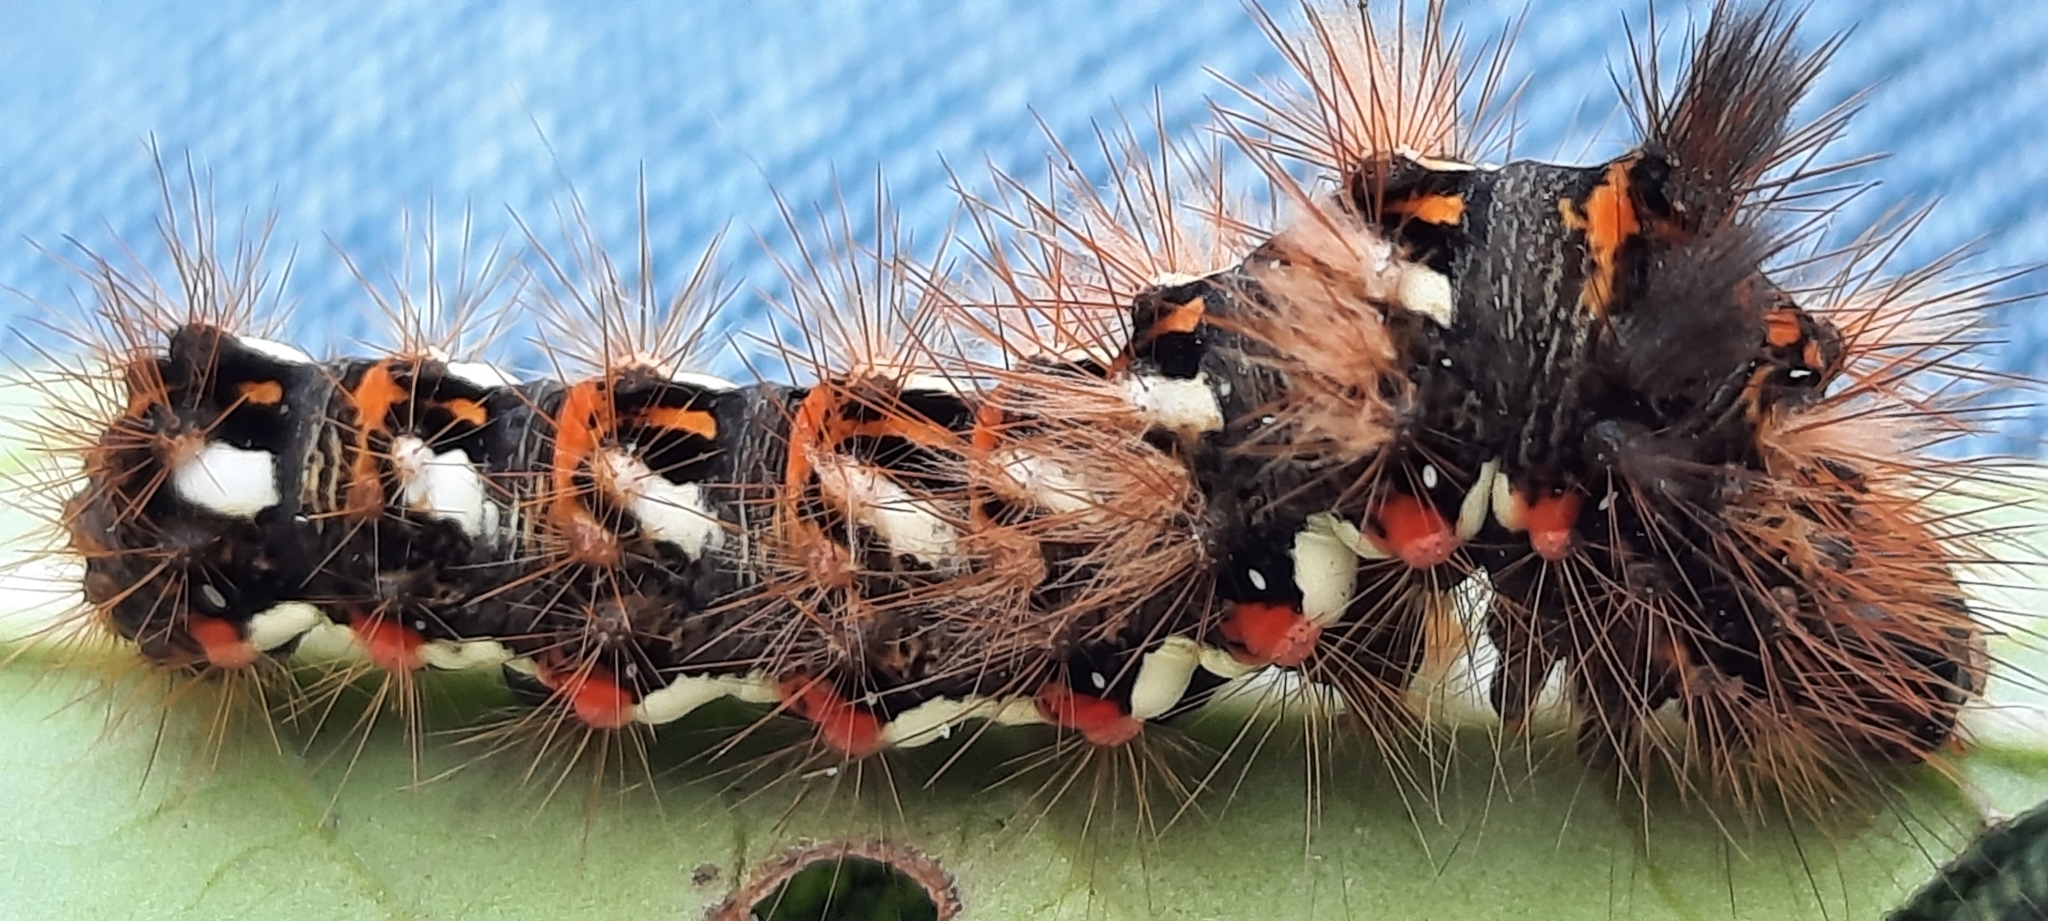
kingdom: Animalia
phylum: Arthropoda
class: Insecta
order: Lepidoptera
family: Noctuidae
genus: Acronicta
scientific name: Acronicta rumicis
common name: Knot grass
